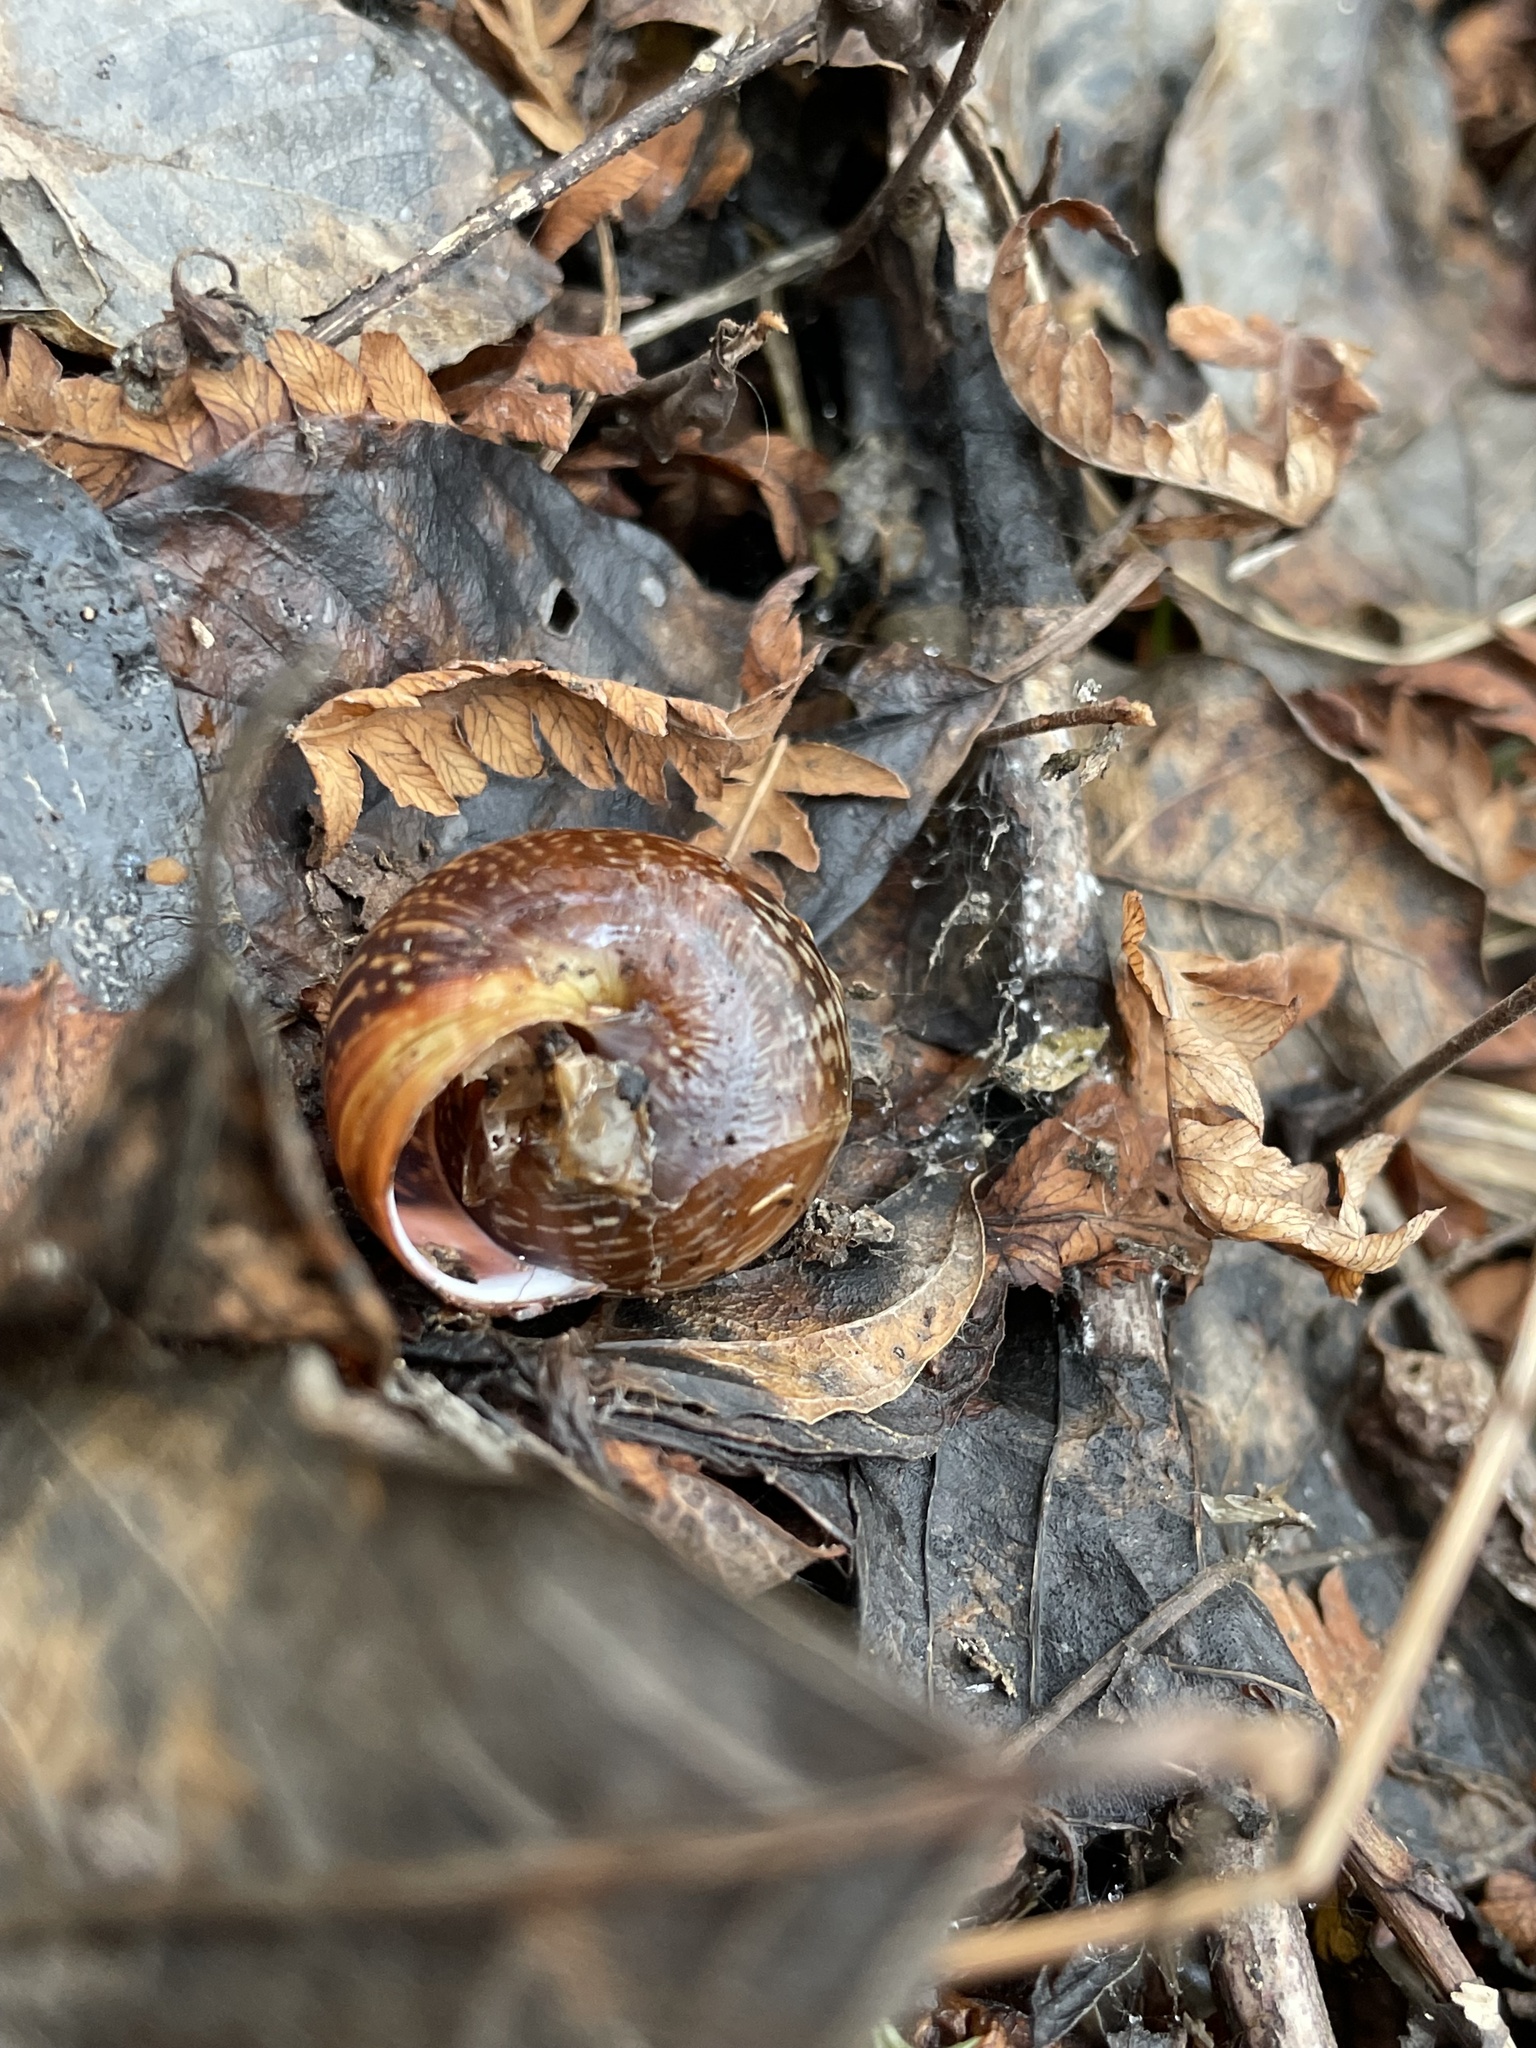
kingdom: Animalia
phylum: Mollusca
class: Gastropoda
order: Stylommatophora
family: Helicidae
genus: Arianta
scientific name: Arianta arbustorum
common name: Copse snail
